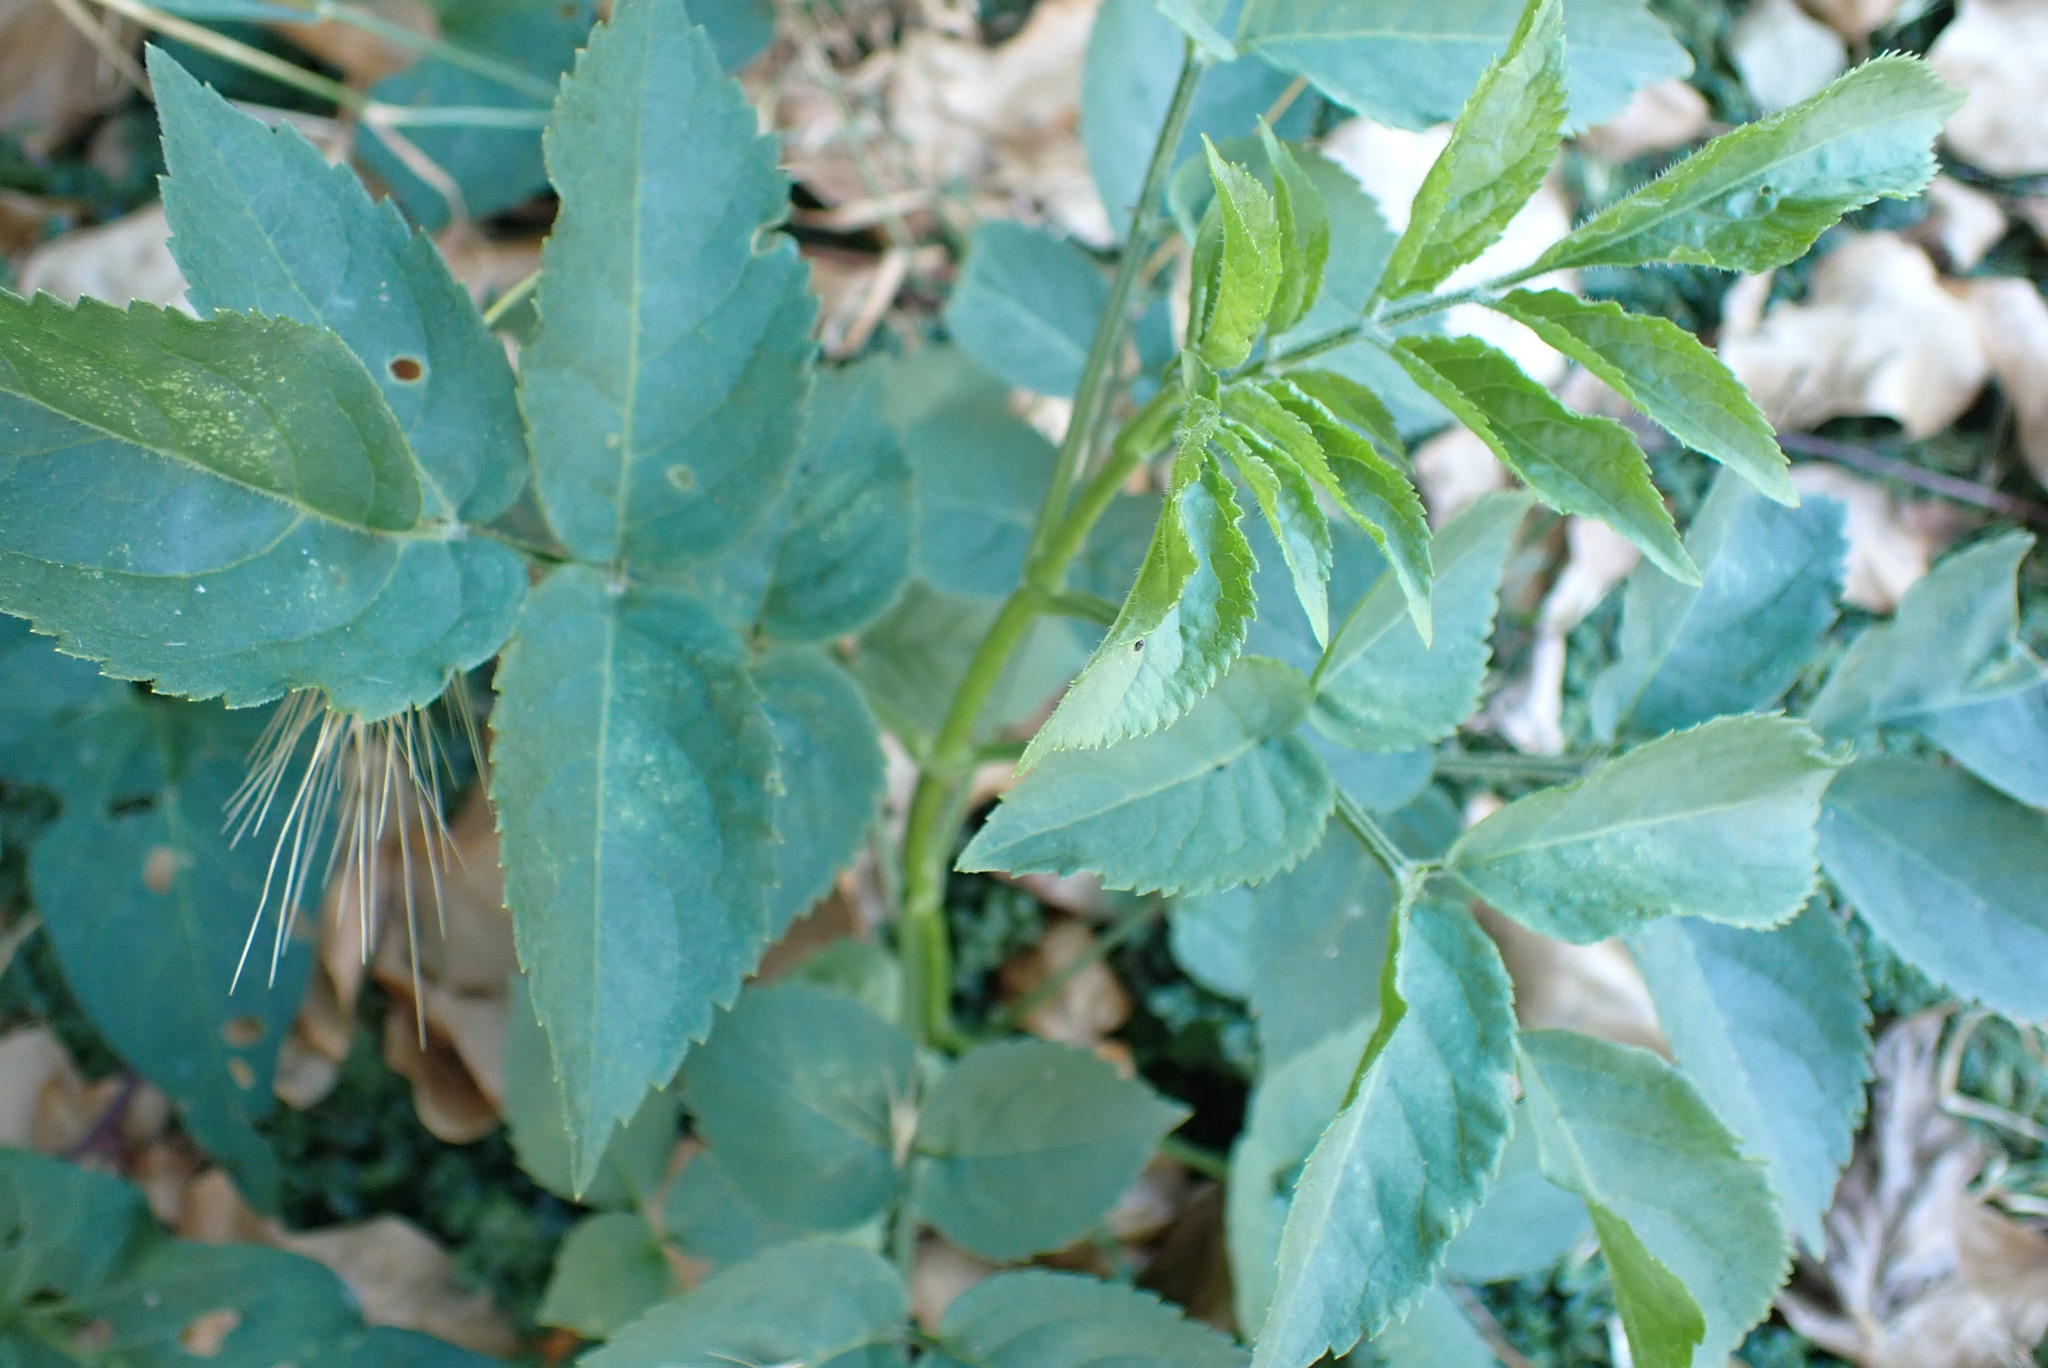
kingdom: Plantae
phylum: Tracheophyta
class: Magnoliopsida
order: Dipsacales
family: Viburnaceae
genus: Sambucus
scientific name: Sambucus nigra
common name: Elder
